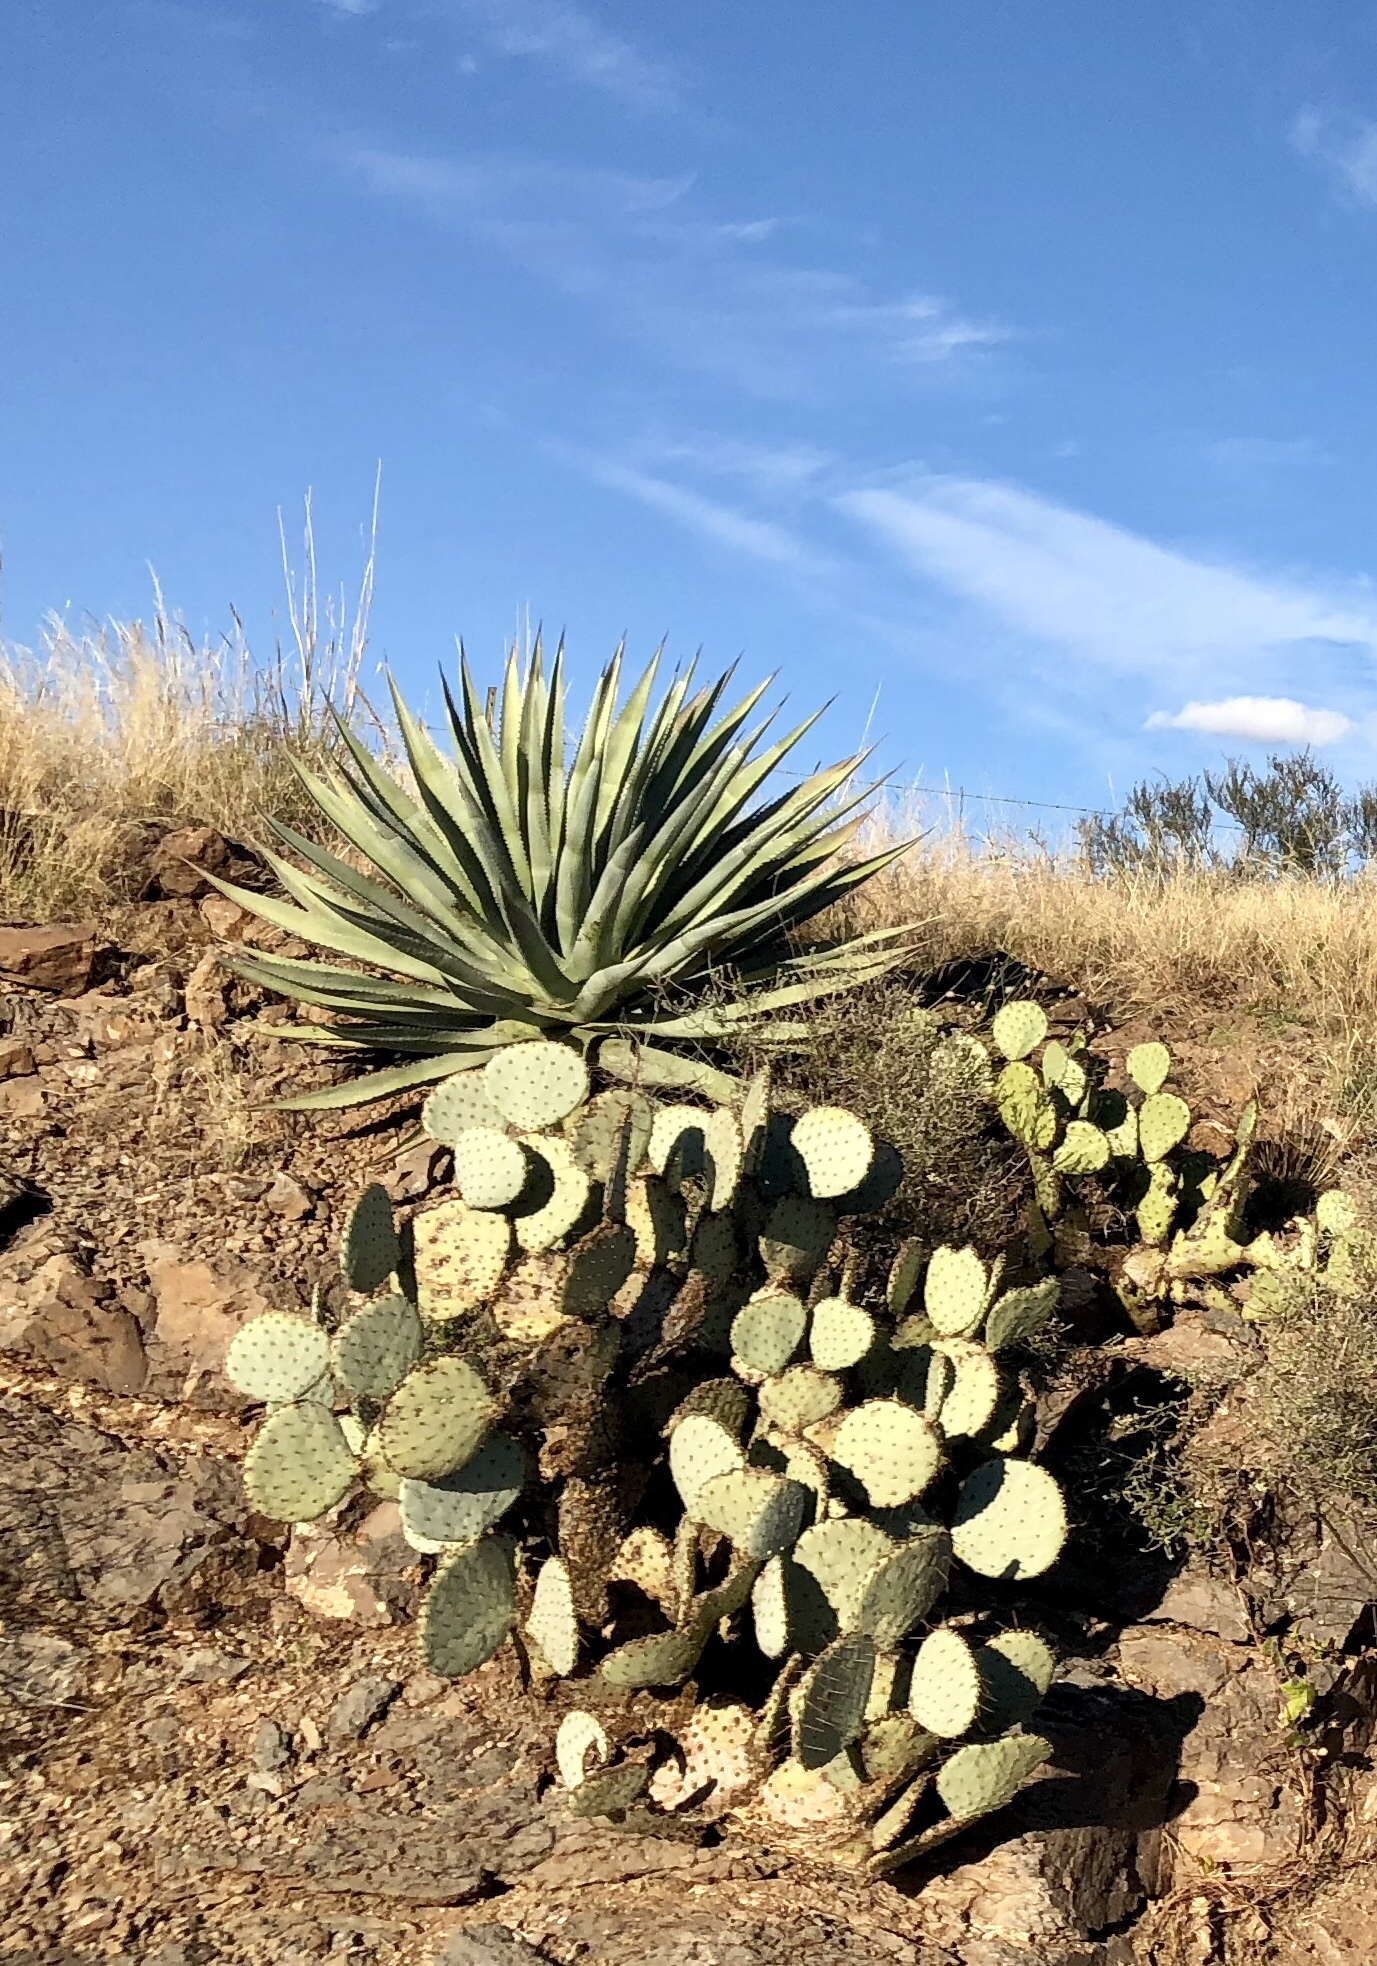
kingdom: Plantae
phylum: Tracheophyta
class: Liliopsida
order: Asparagales
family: Asparagaceae
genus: Agave
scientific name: Agave palmeri
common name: Palmer agave
